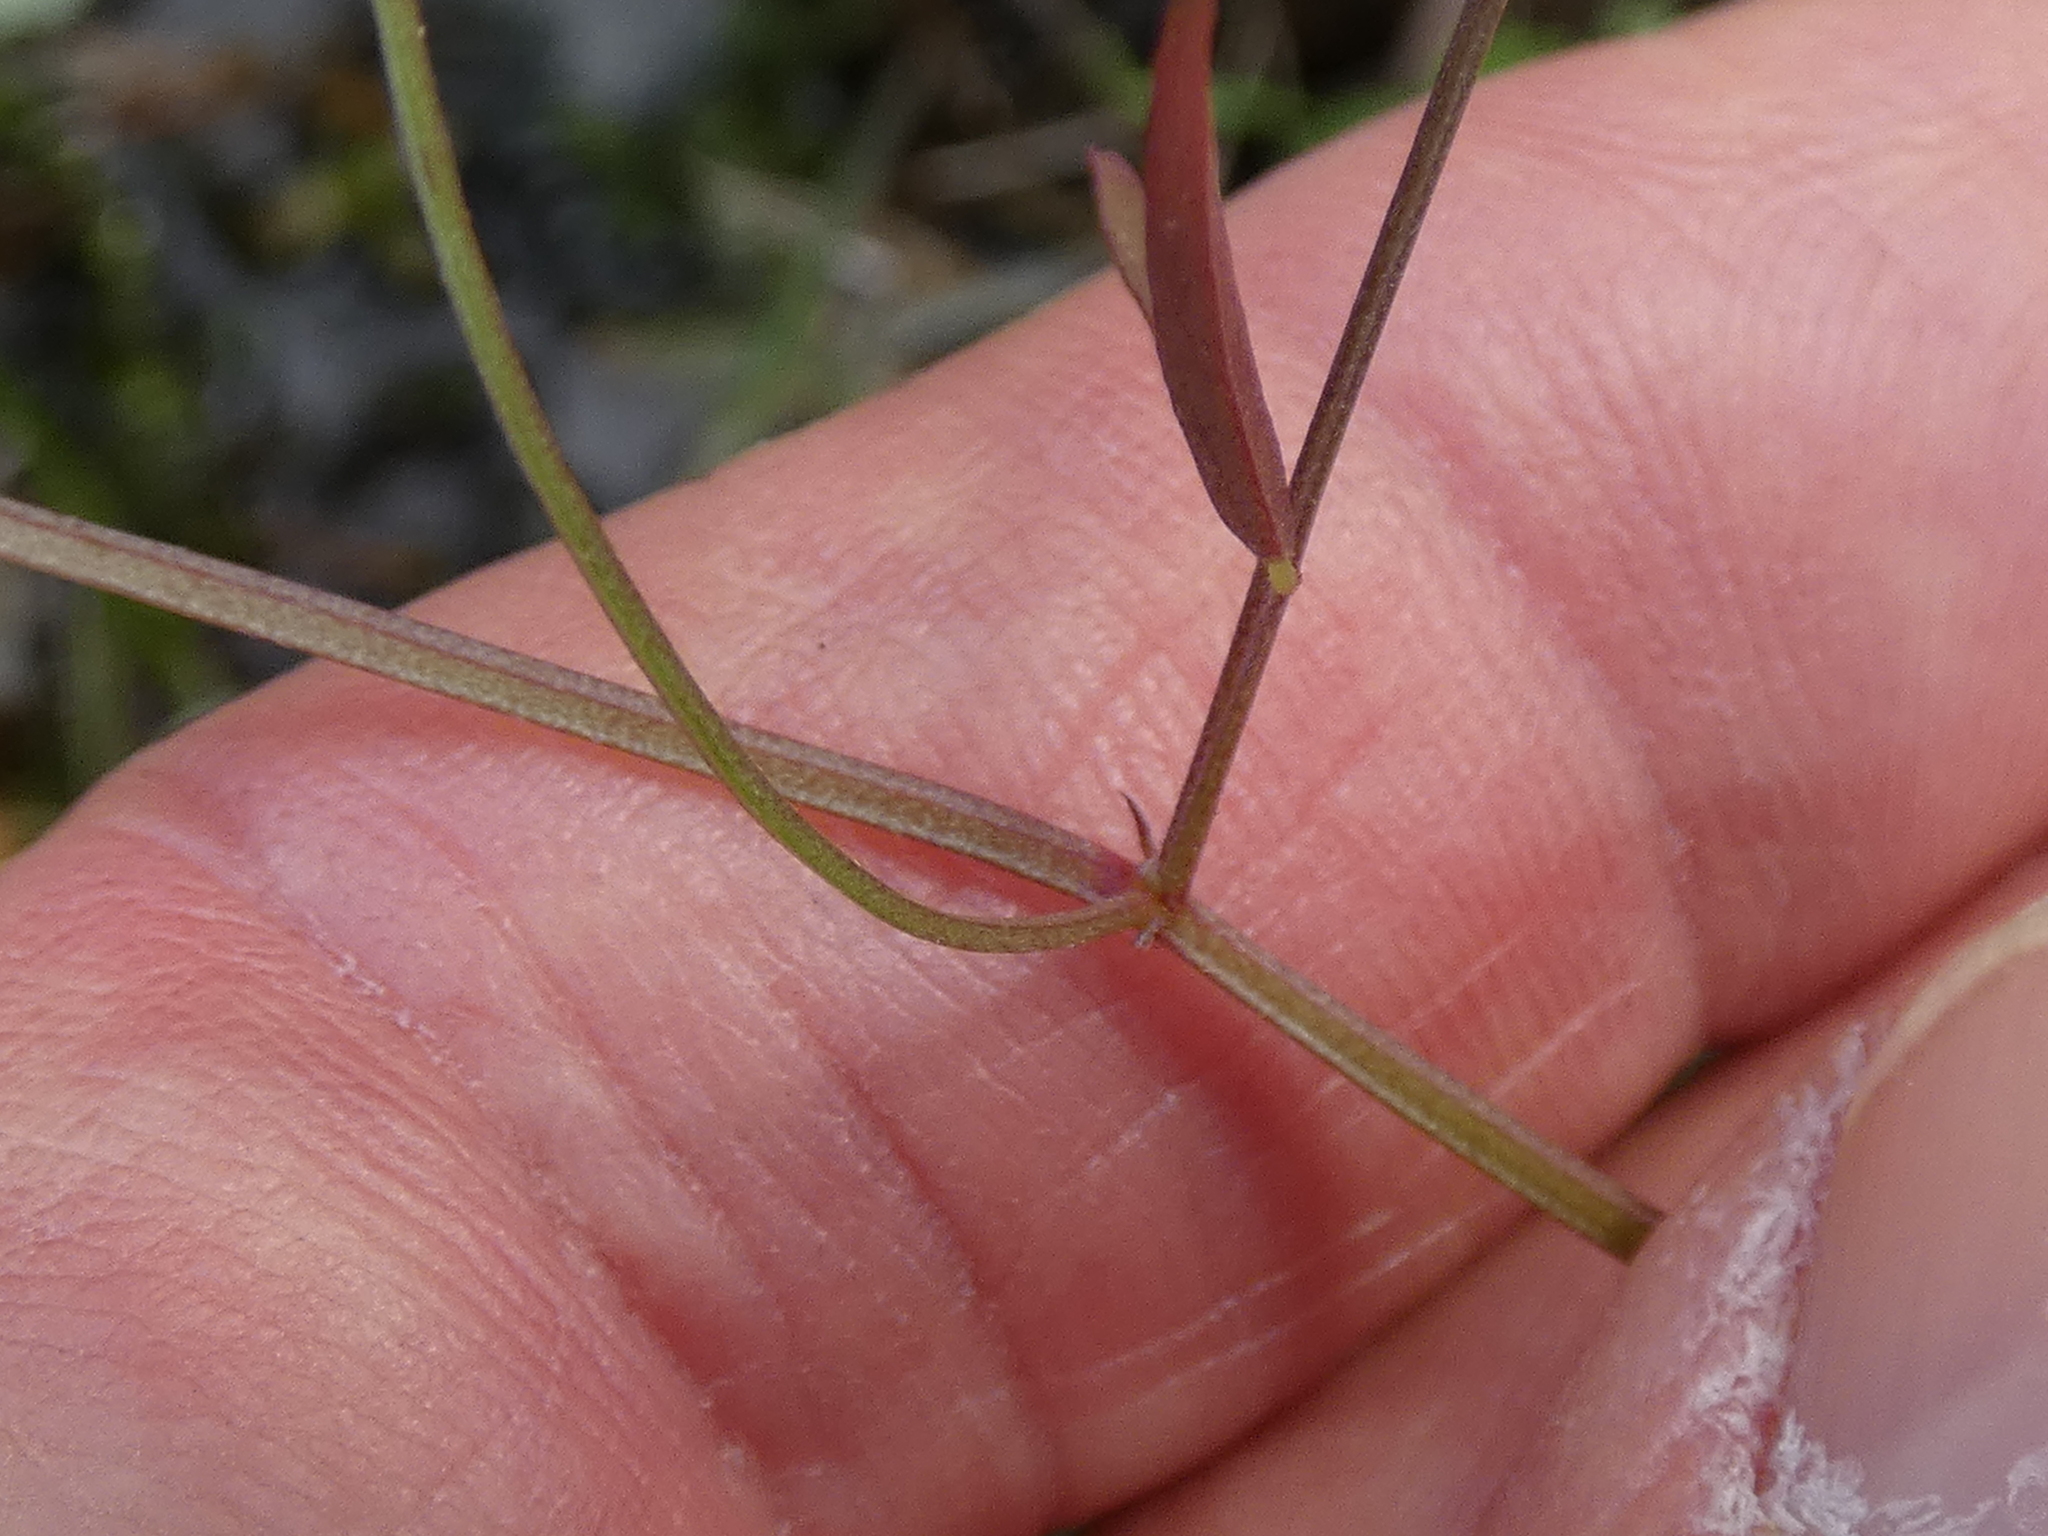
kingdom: Plantae
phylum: Tracheophyta
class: Magnoliopsida
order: Fabales
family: Fabaceae
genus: Vicia
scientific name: Vicia acutifolia
